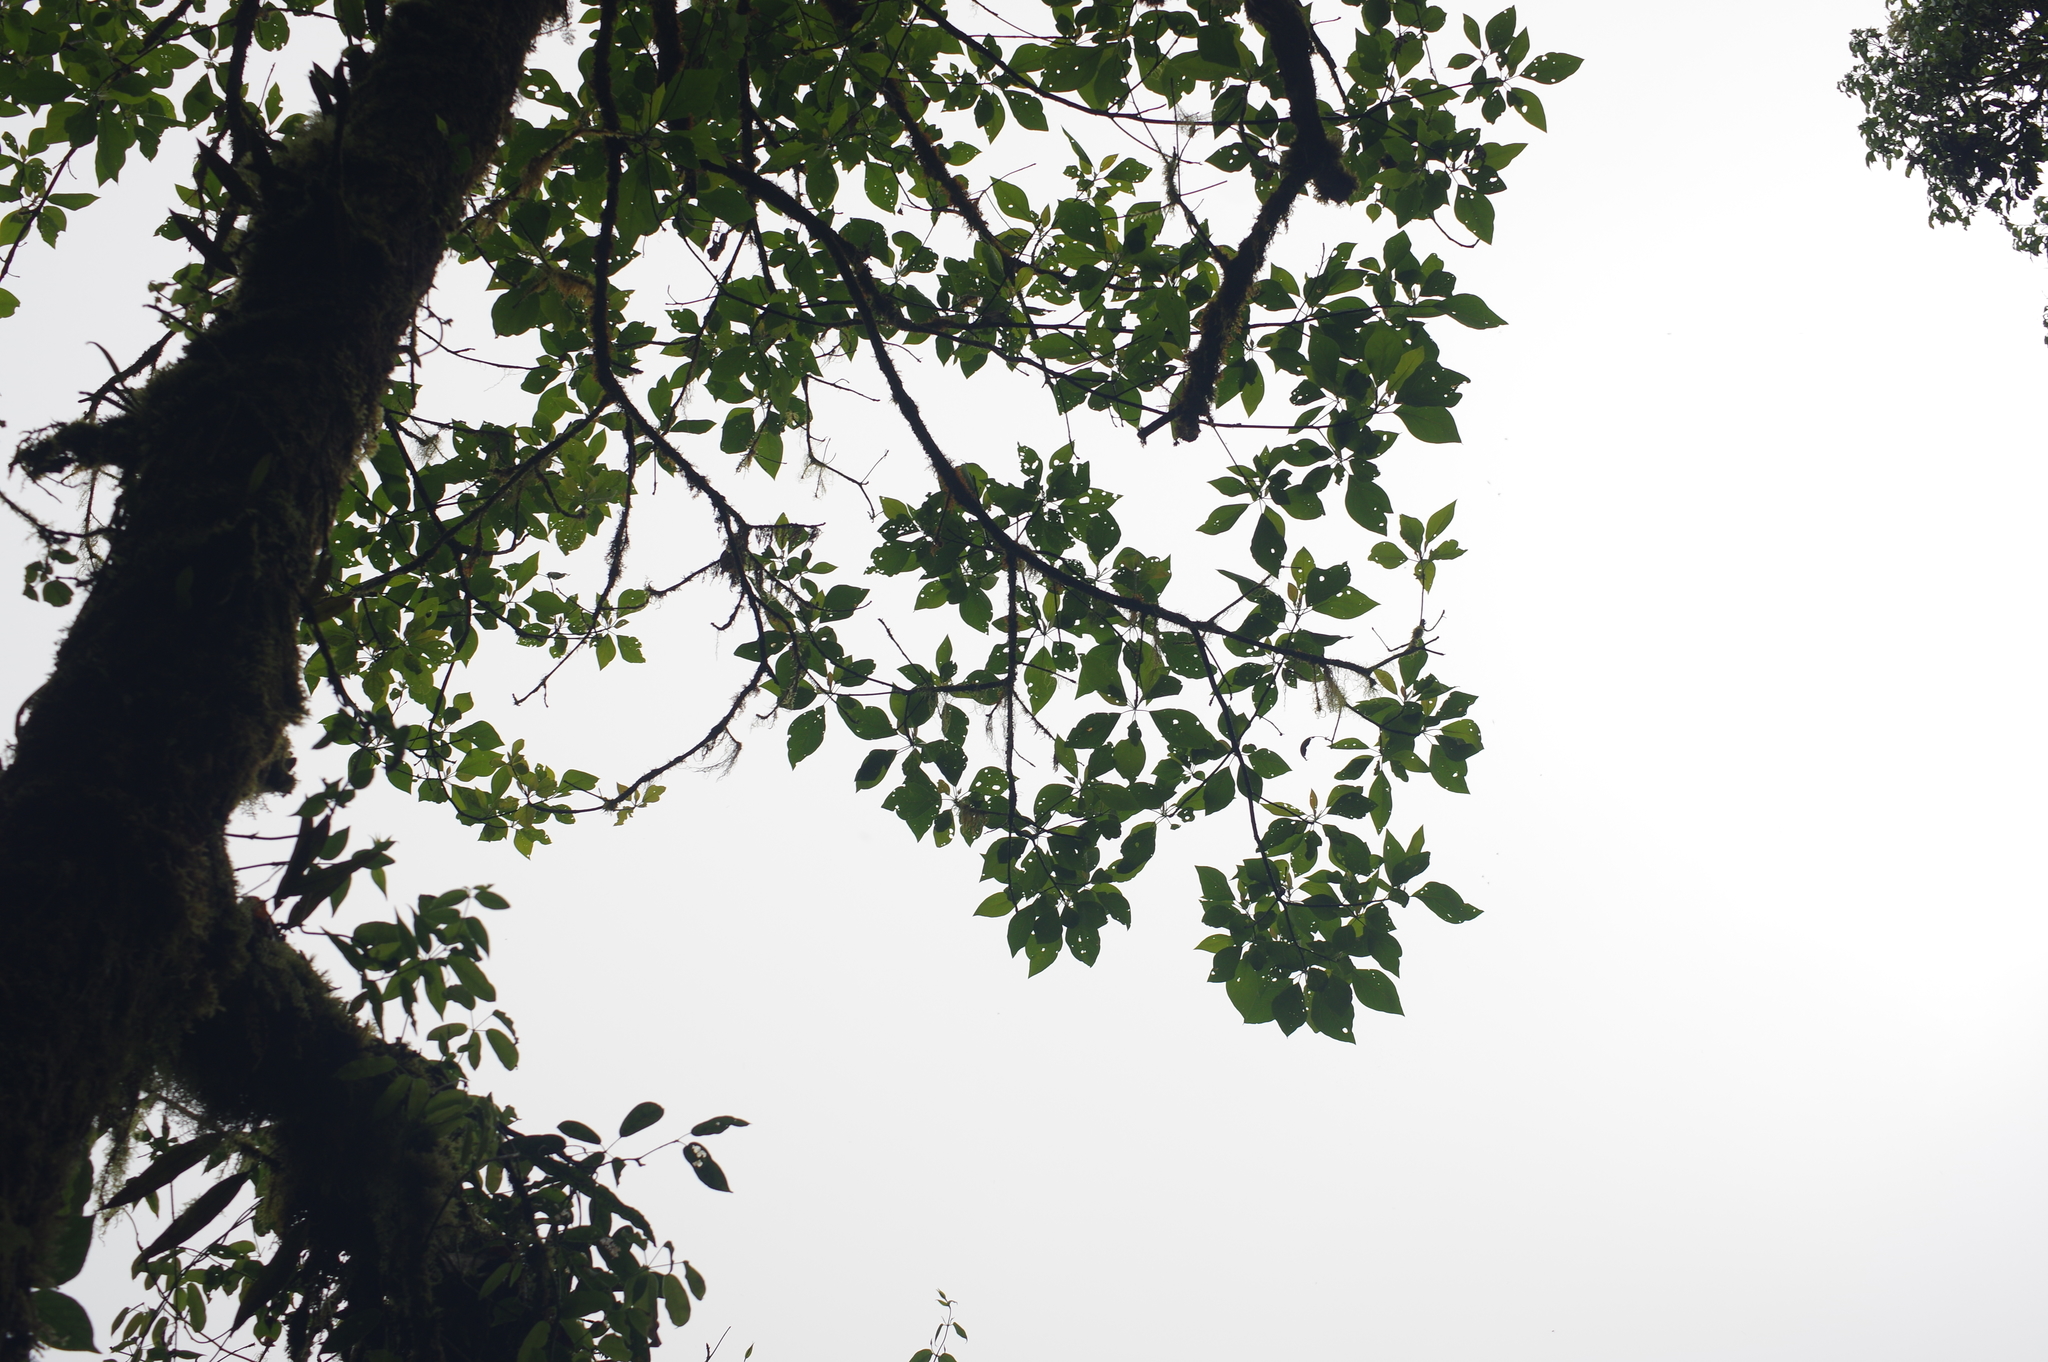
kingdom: Plantae
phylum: Tracheophyta
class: Magnoliopsida
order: Laurales
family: Lauraceae
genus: Sassafras
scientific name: Sassafras randaiense
